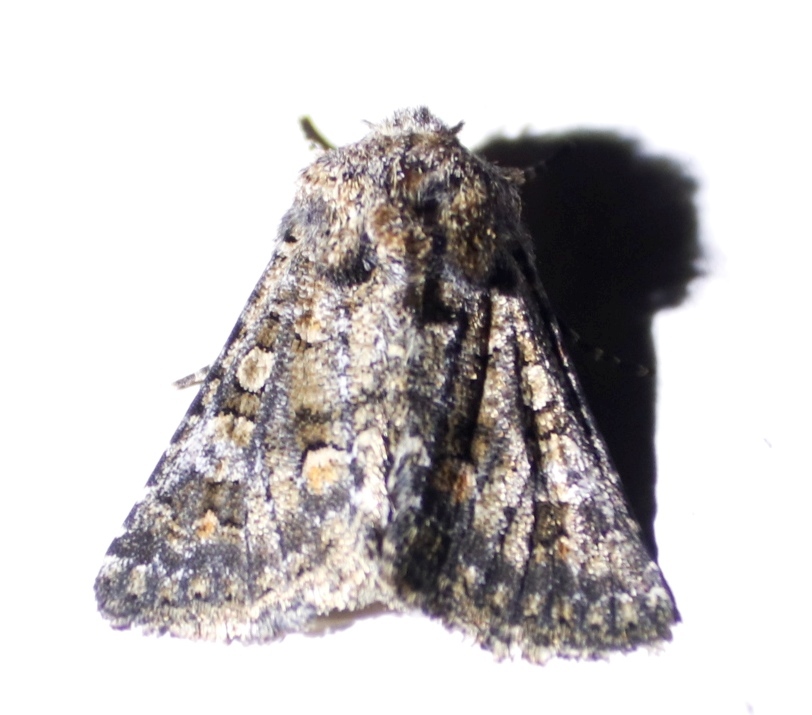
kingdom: Animalia
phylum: Arthropoda
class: Insecta
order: Lepidoptera
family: Noctuidae
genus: Klugeana
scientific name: Klugeana philoxalis
